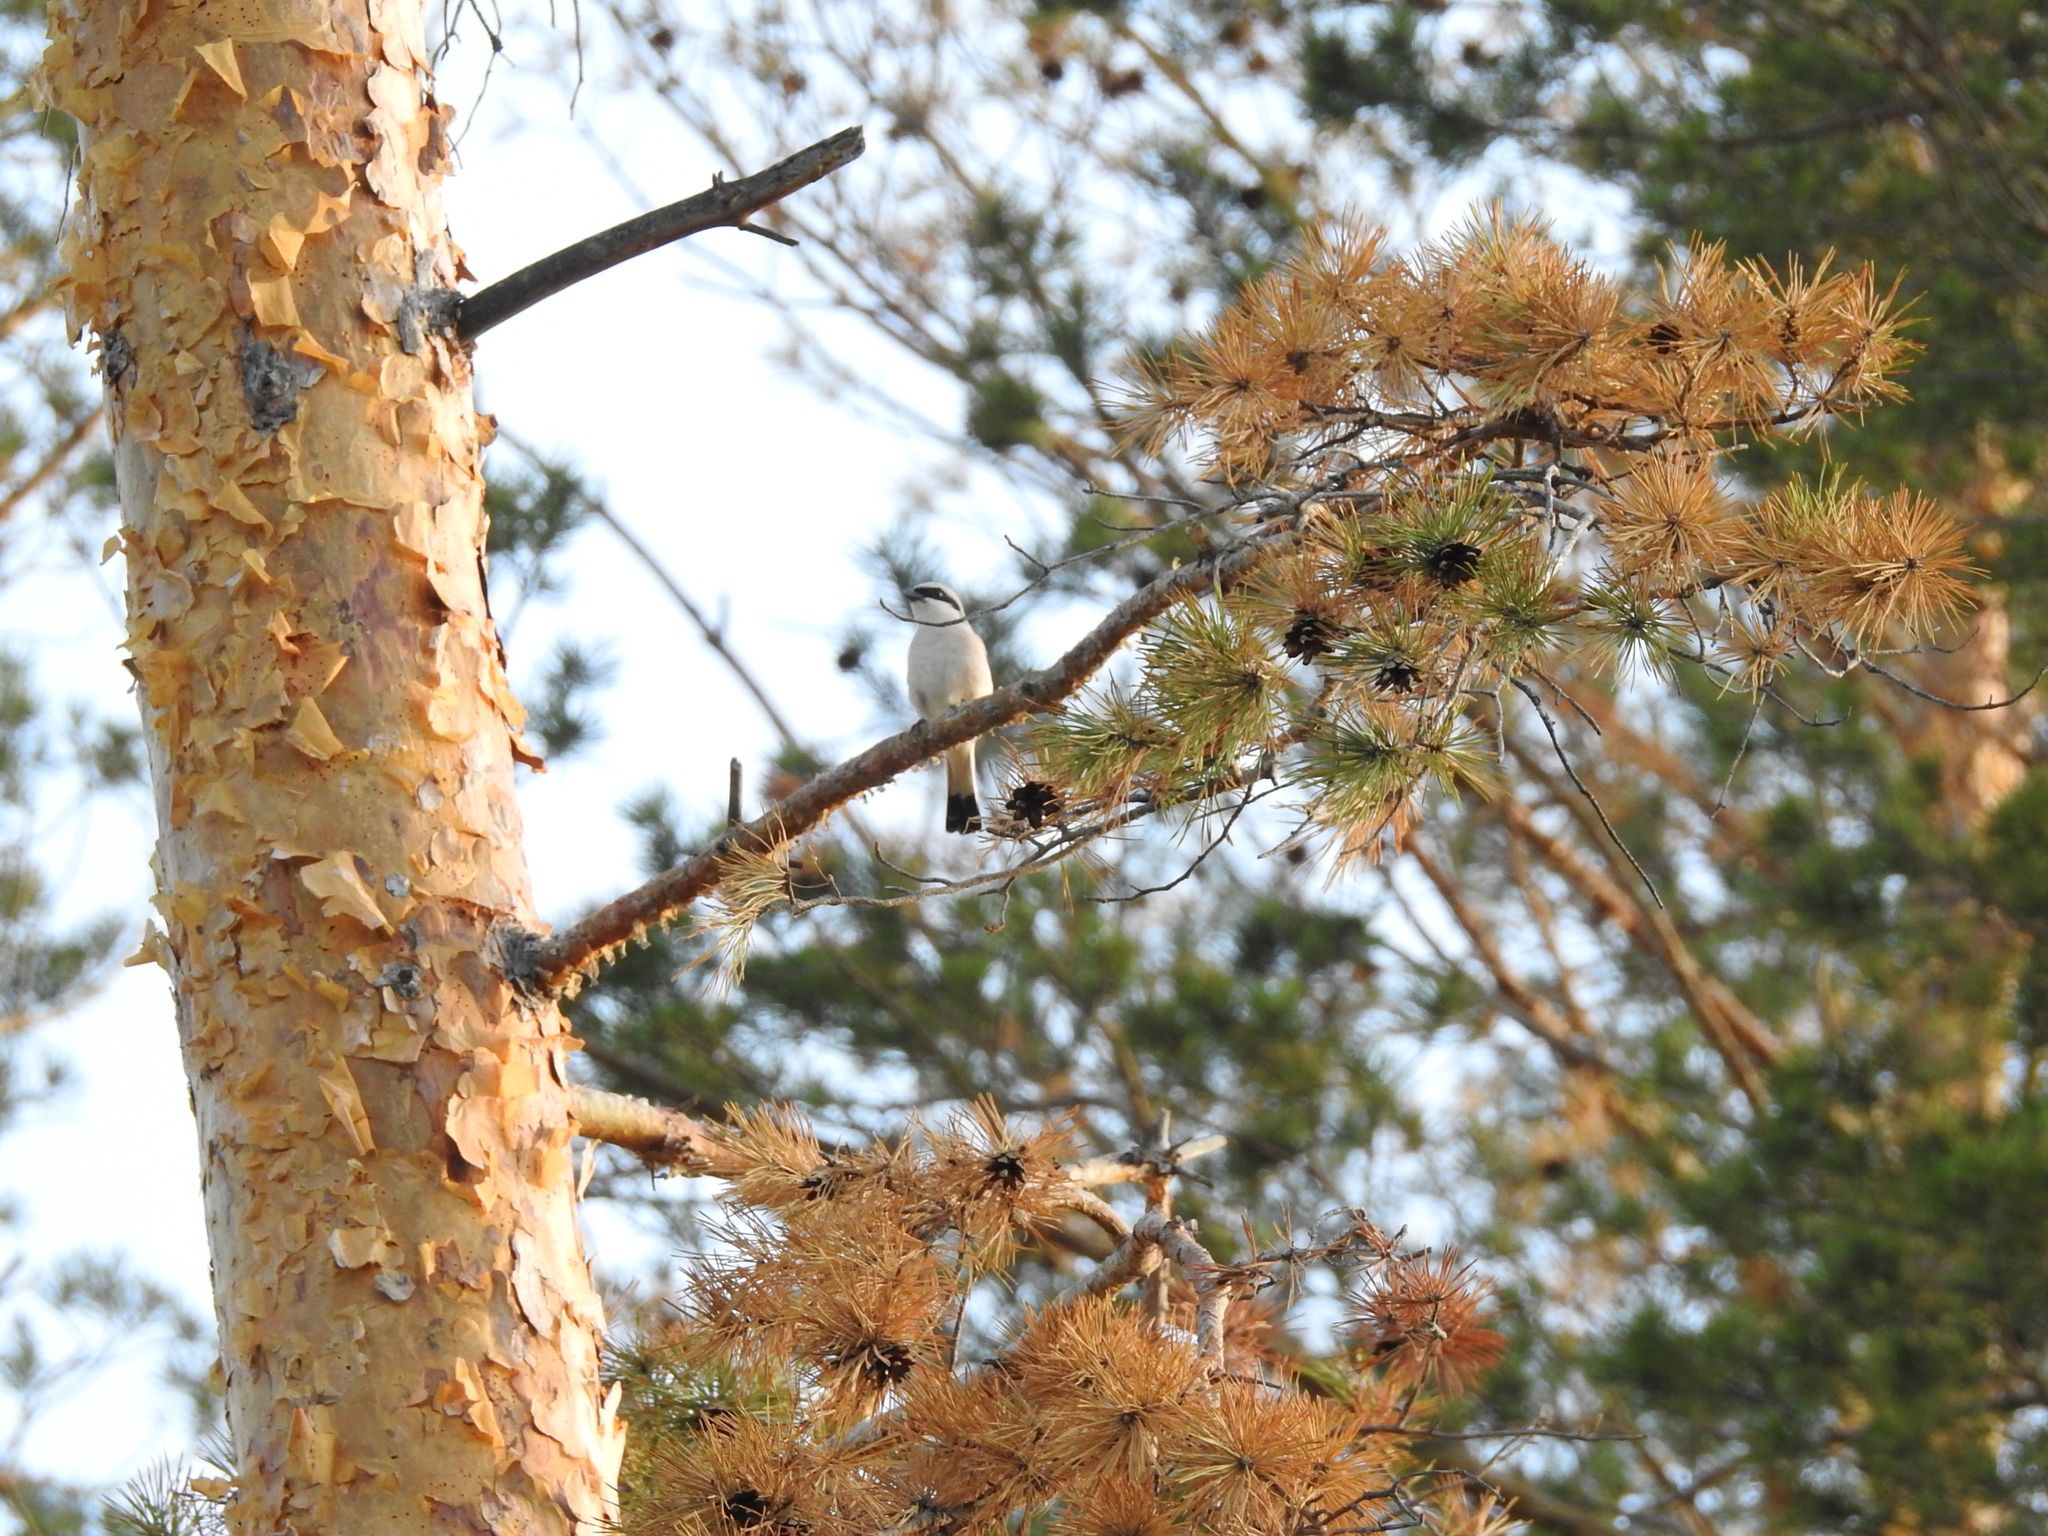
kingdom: Animalia
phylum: Chordata
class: Aves
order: Passeriformes
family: Laniidae
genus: Lanius
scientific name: Lanius collurio
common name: Red-backed shrike
